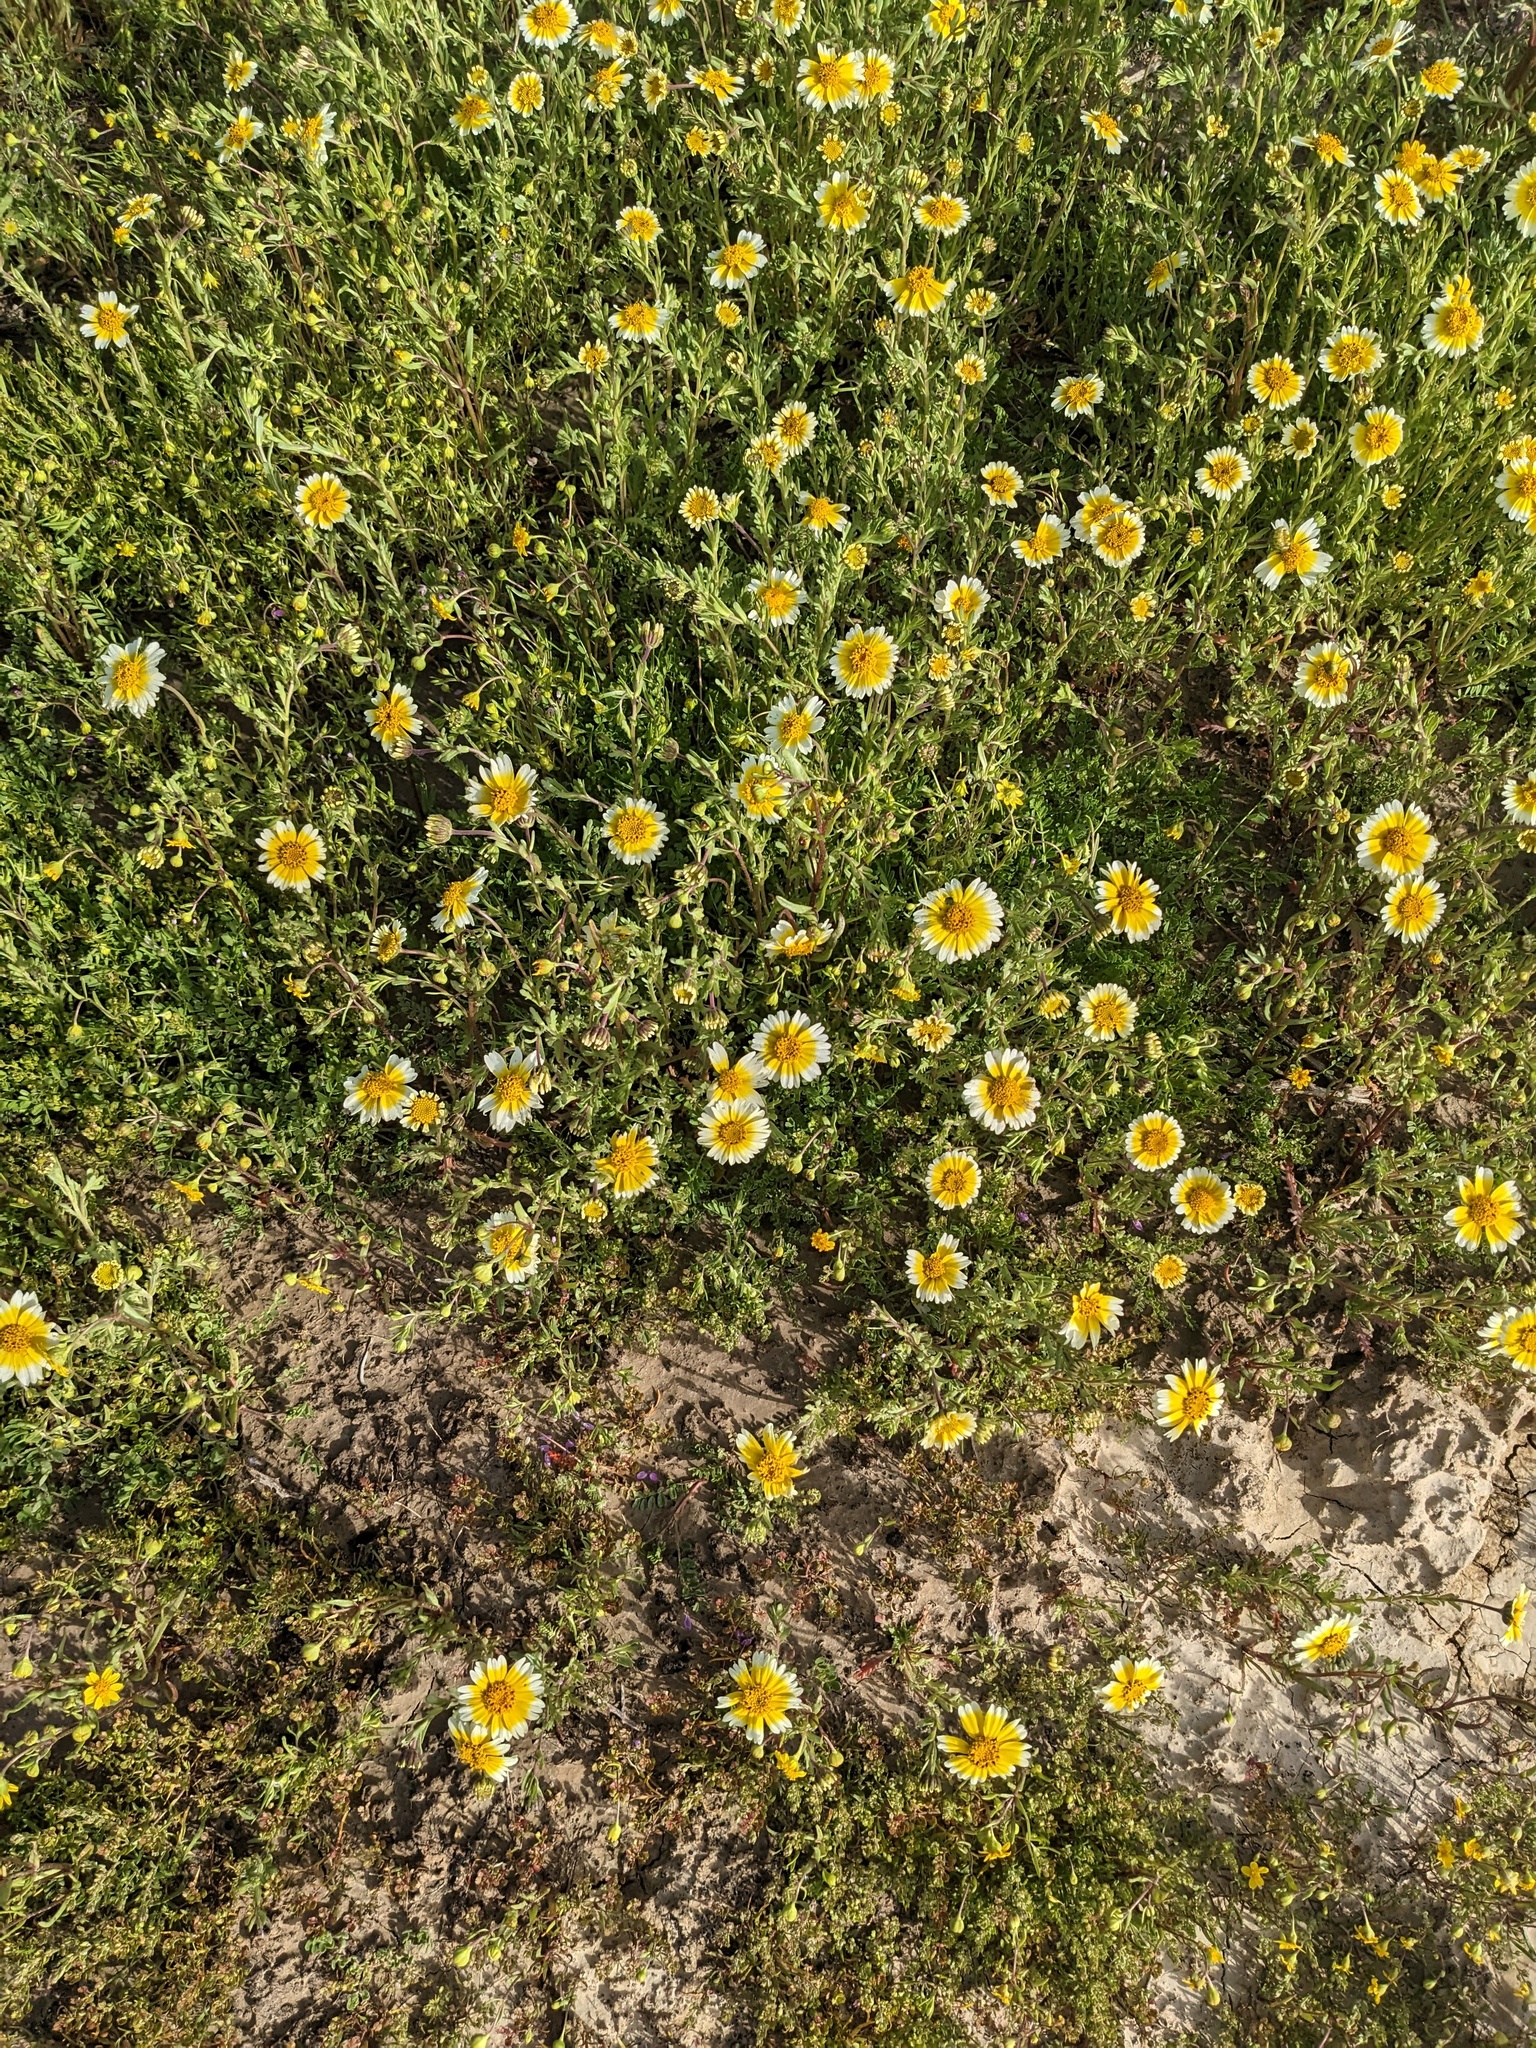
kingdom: Plantae
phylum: Tracheophyta
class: Magnoliopsida
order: Asterales
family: Asteraceae
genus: Layia
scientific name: Layia munzii
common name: Munz's tidy-tips
